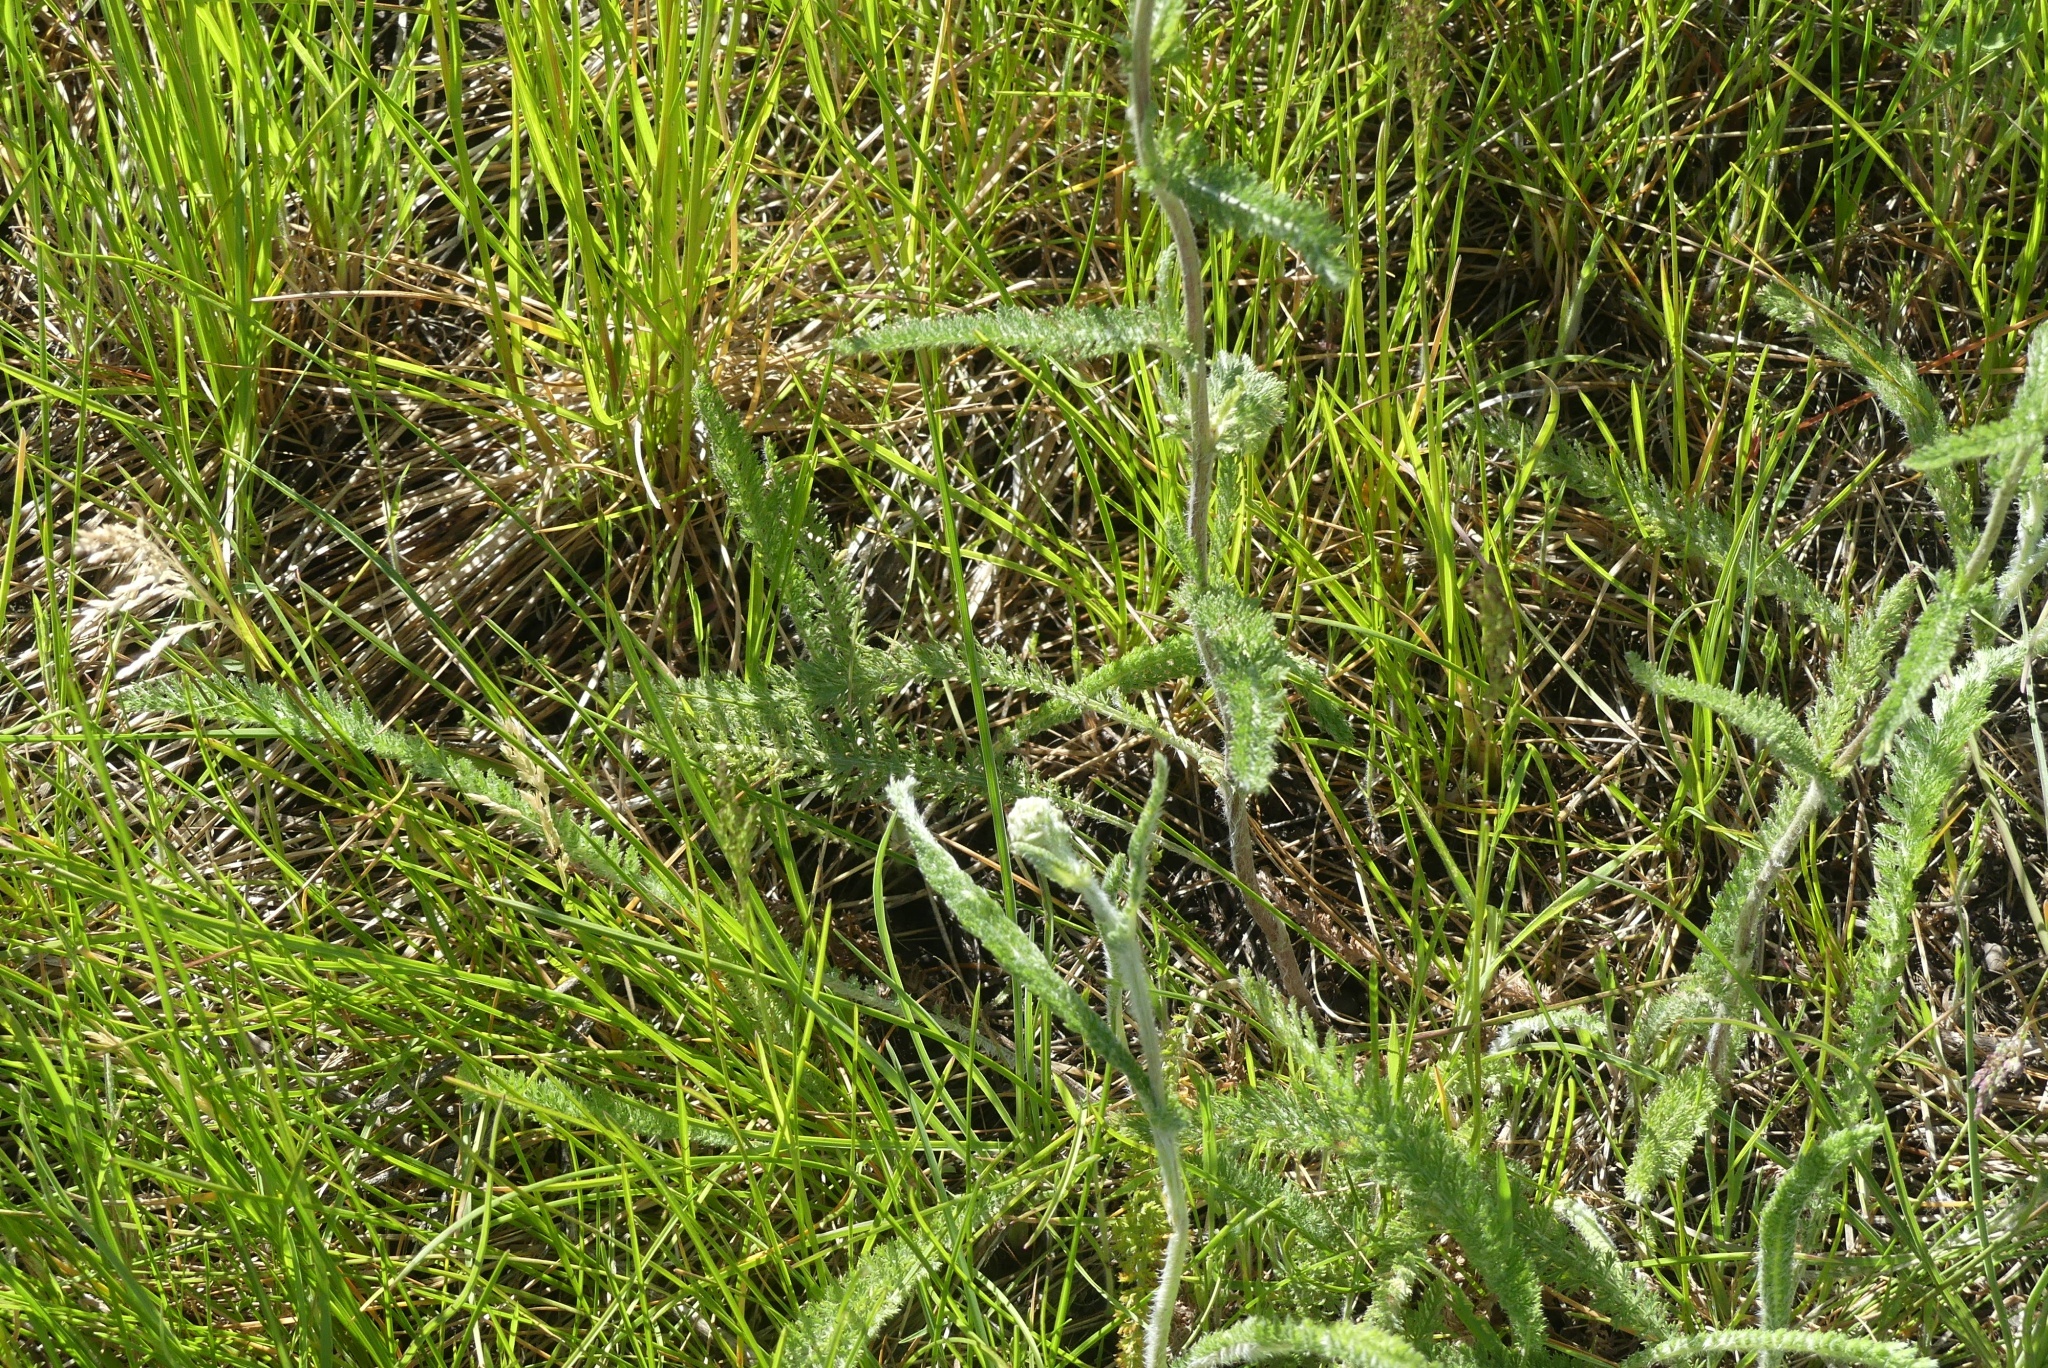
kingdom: Plantae
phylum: Tracheophyta
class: Magnoliopsida
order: Asterales
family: Asteraceae
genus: Achillea
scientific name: Achillea millefolium
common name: Yarrow
